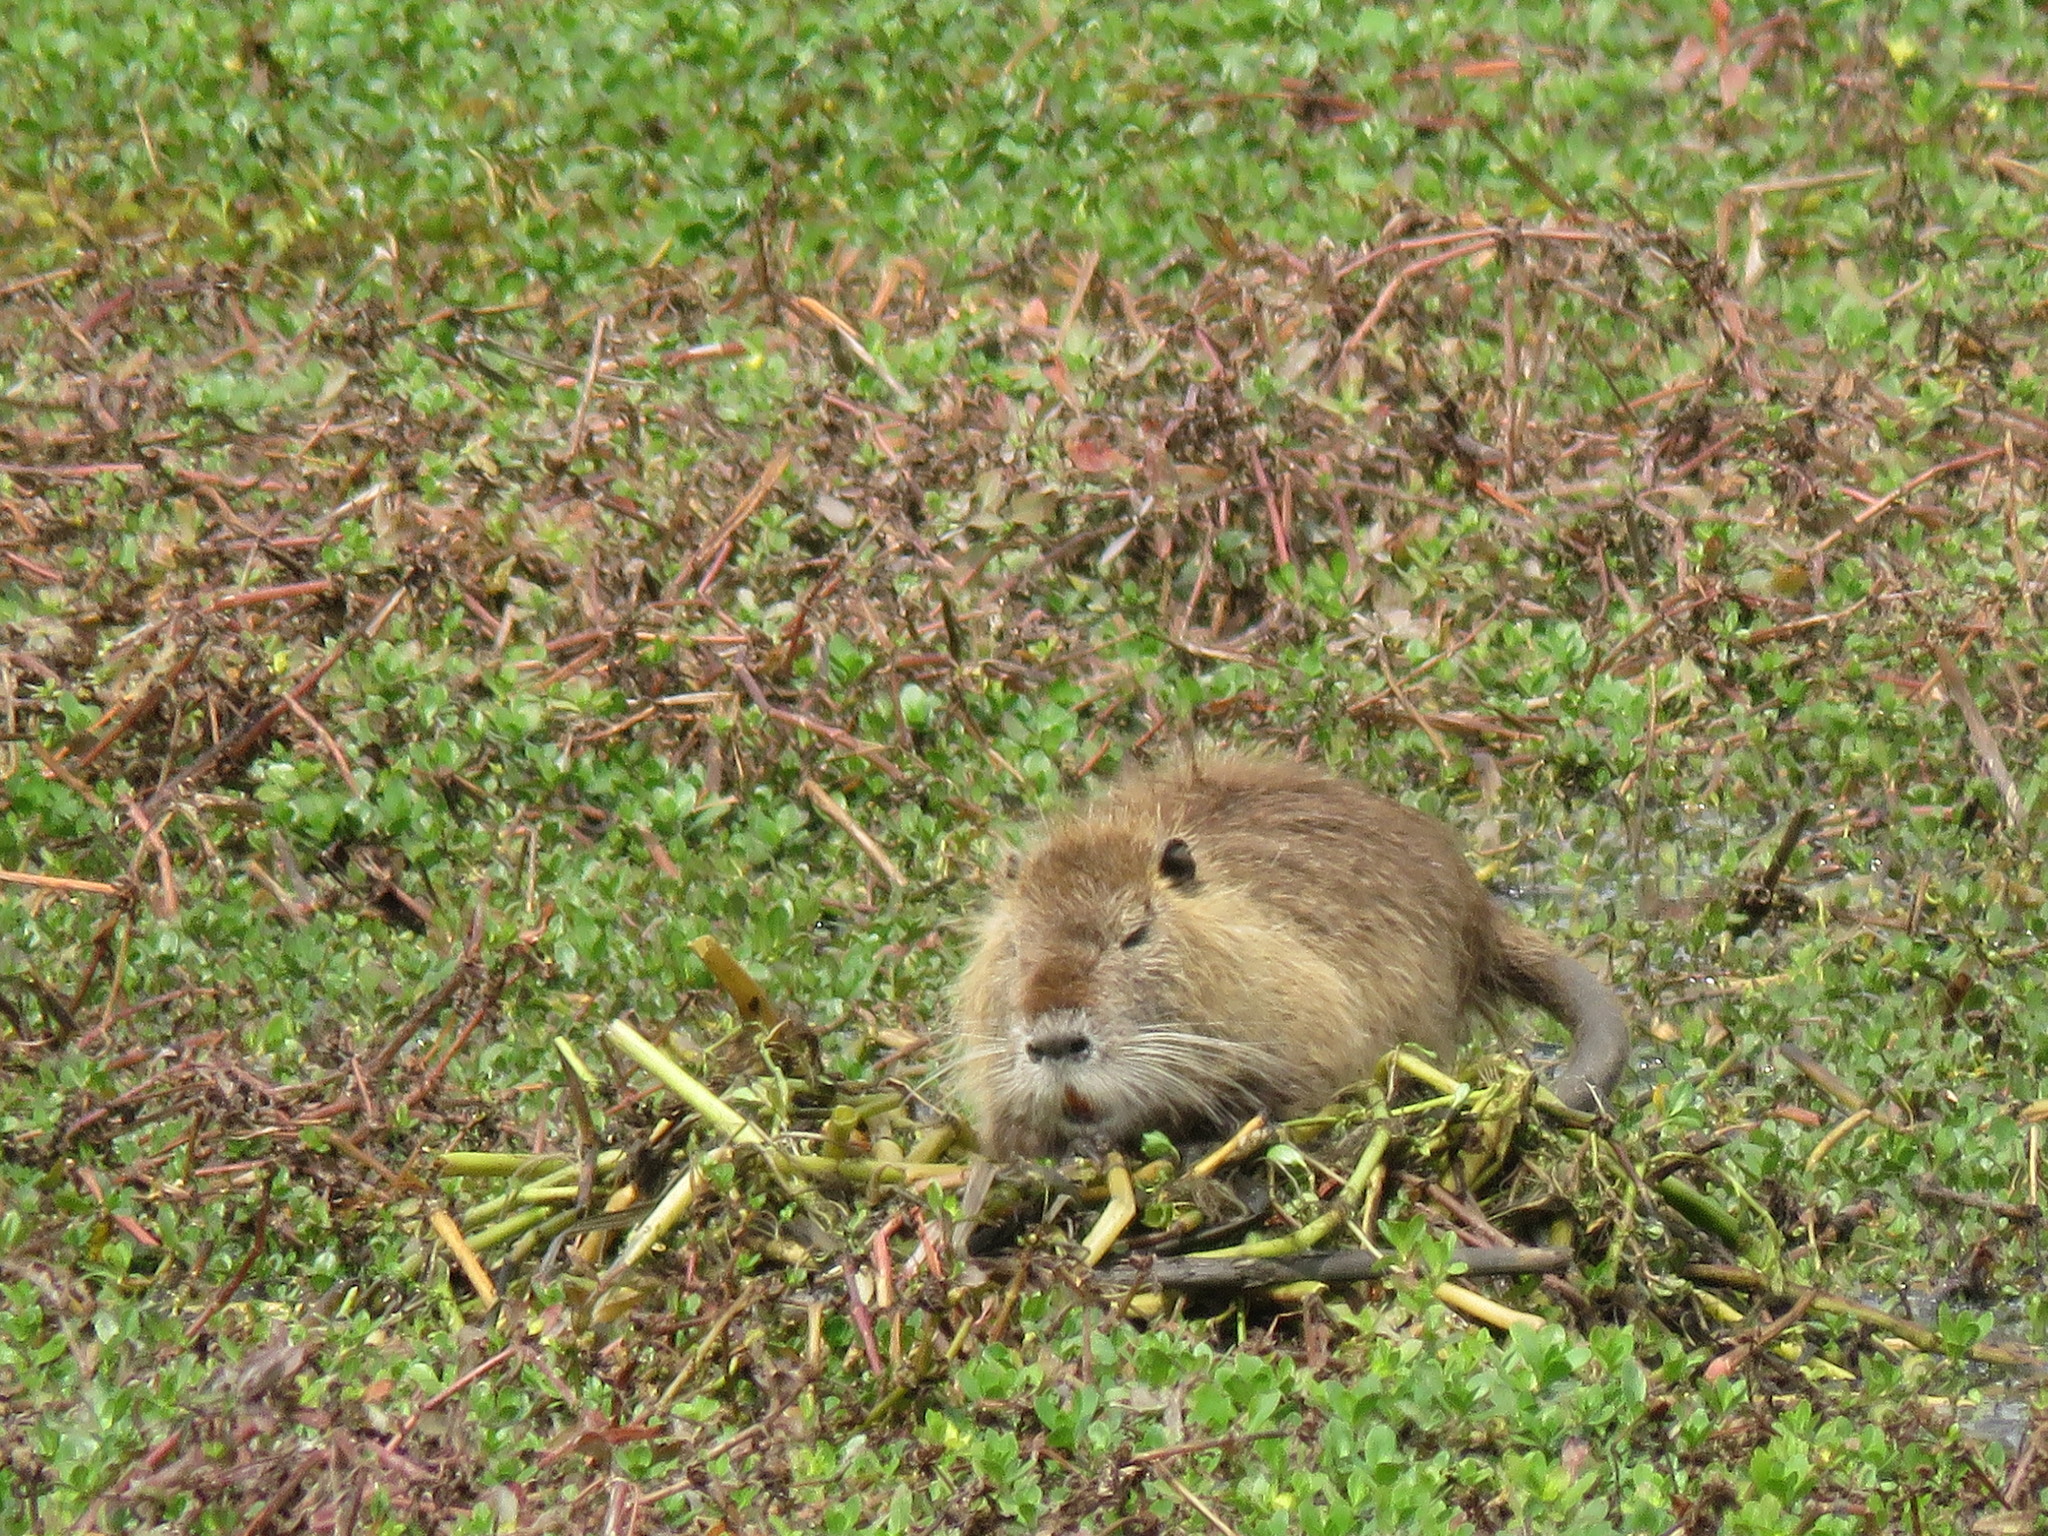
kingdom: Animalia
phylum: Chordata
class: Mammalia
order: Rodentia
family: Myocastoridae
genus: Myocastor
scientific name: Myocastor coypus
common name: Coypu
